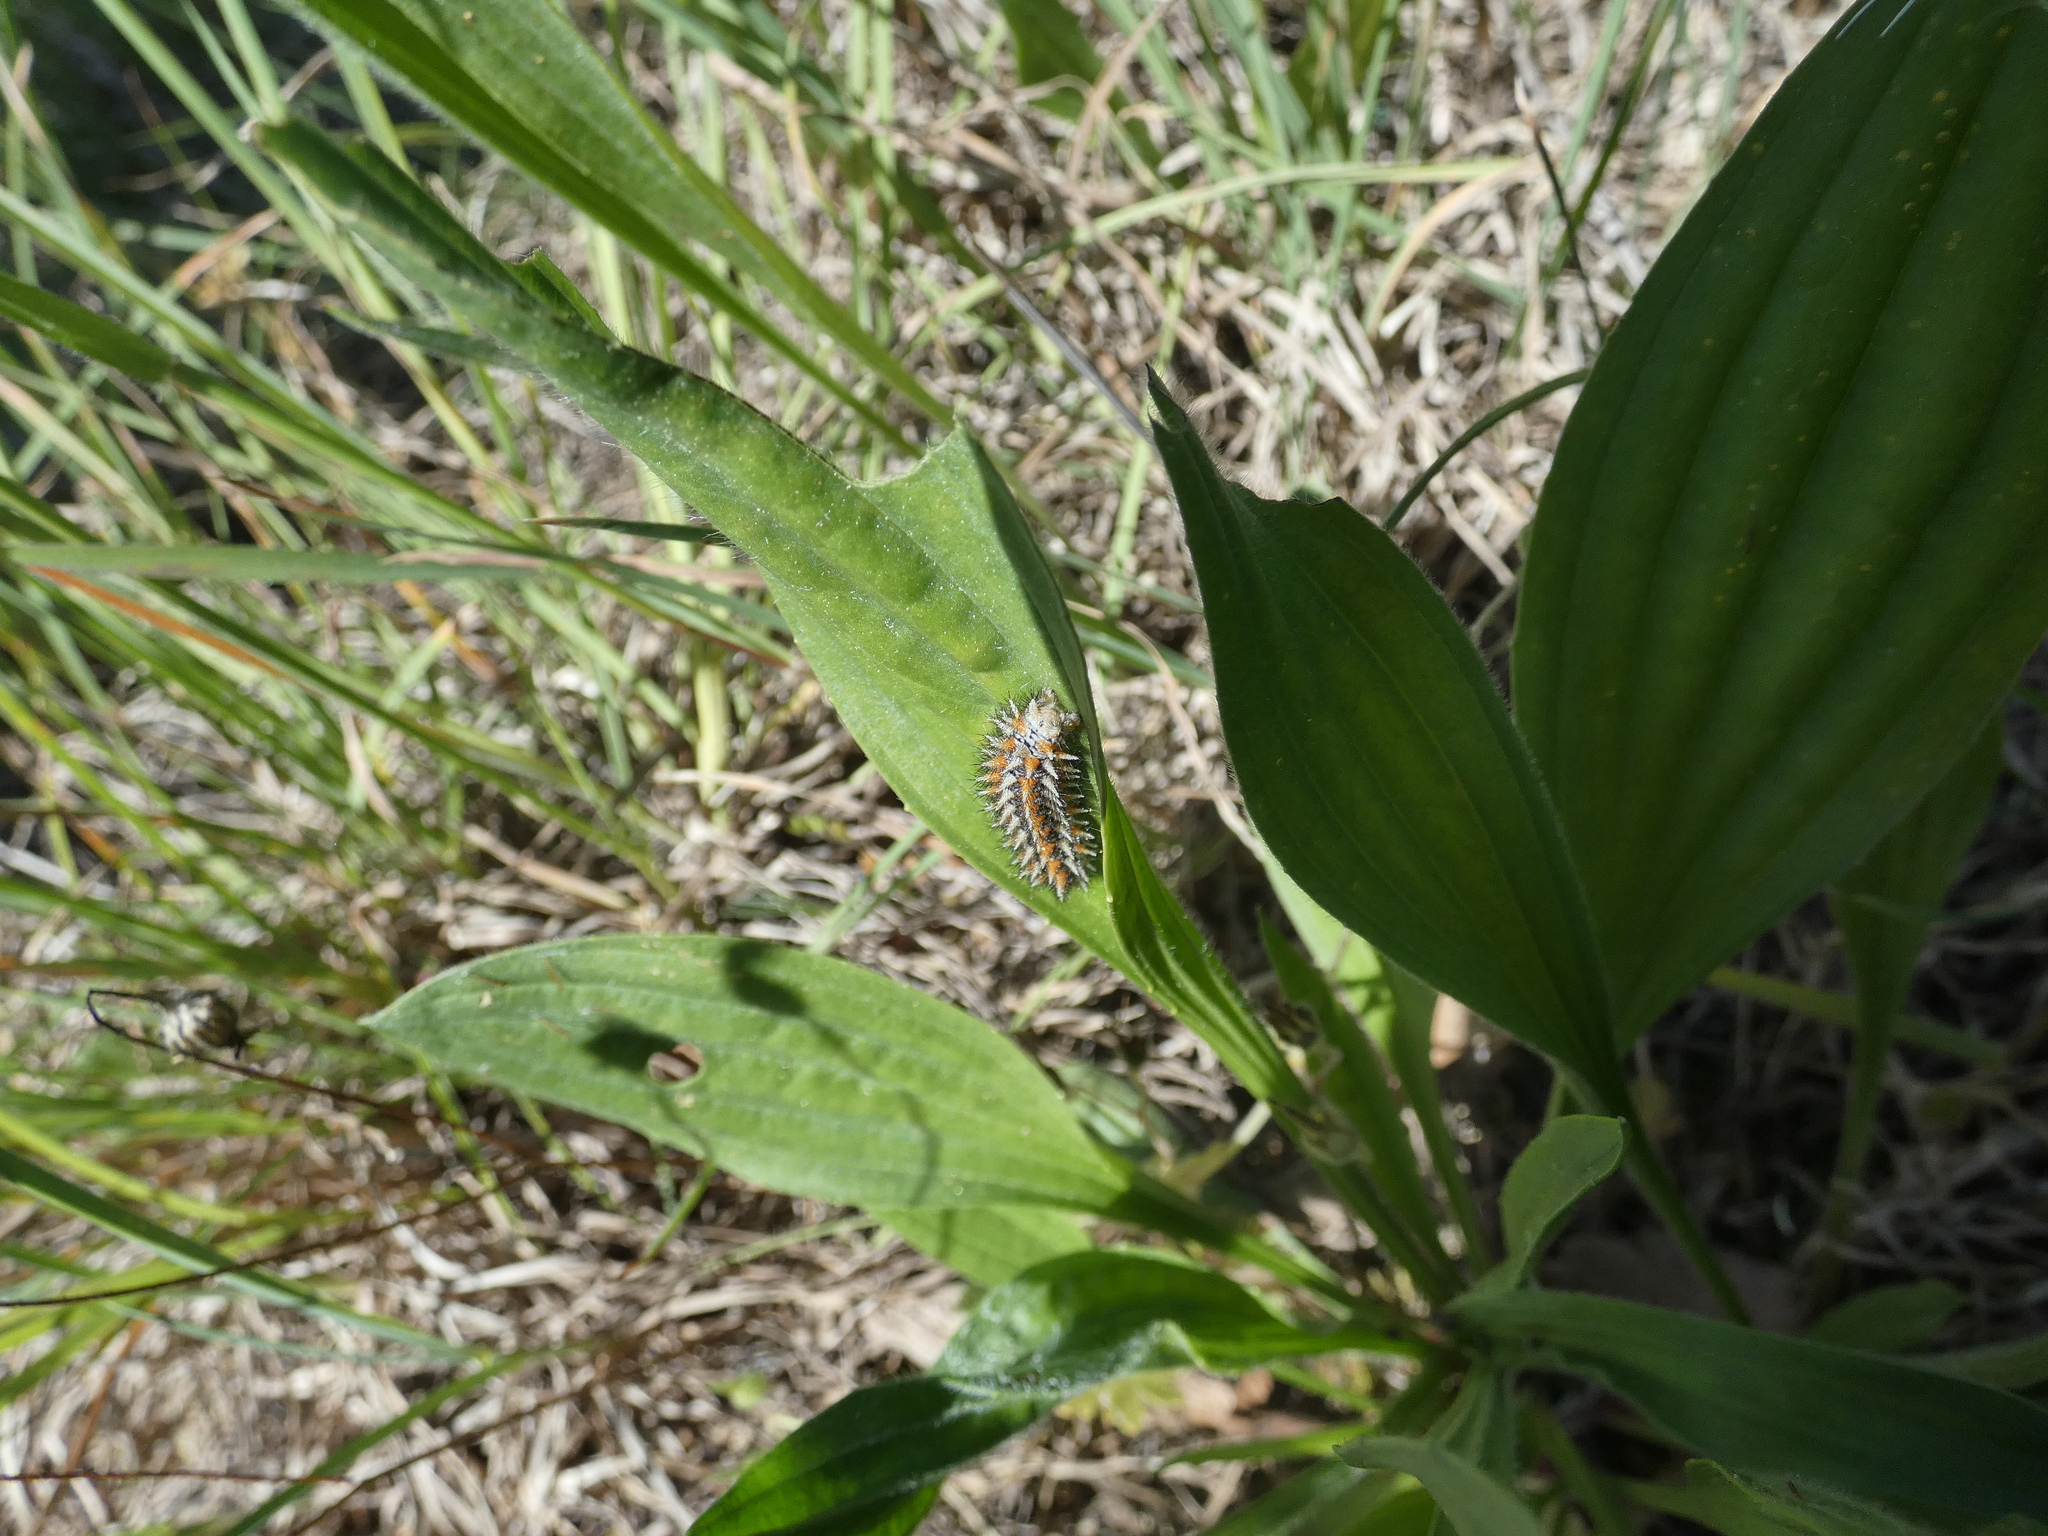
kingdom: Animalia
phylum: Arthropoda
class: Insecta
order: Lepidoptera
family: Nymphalidae
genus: Melitaea
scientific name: Melitaea didyma
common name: Spotted fritillary
